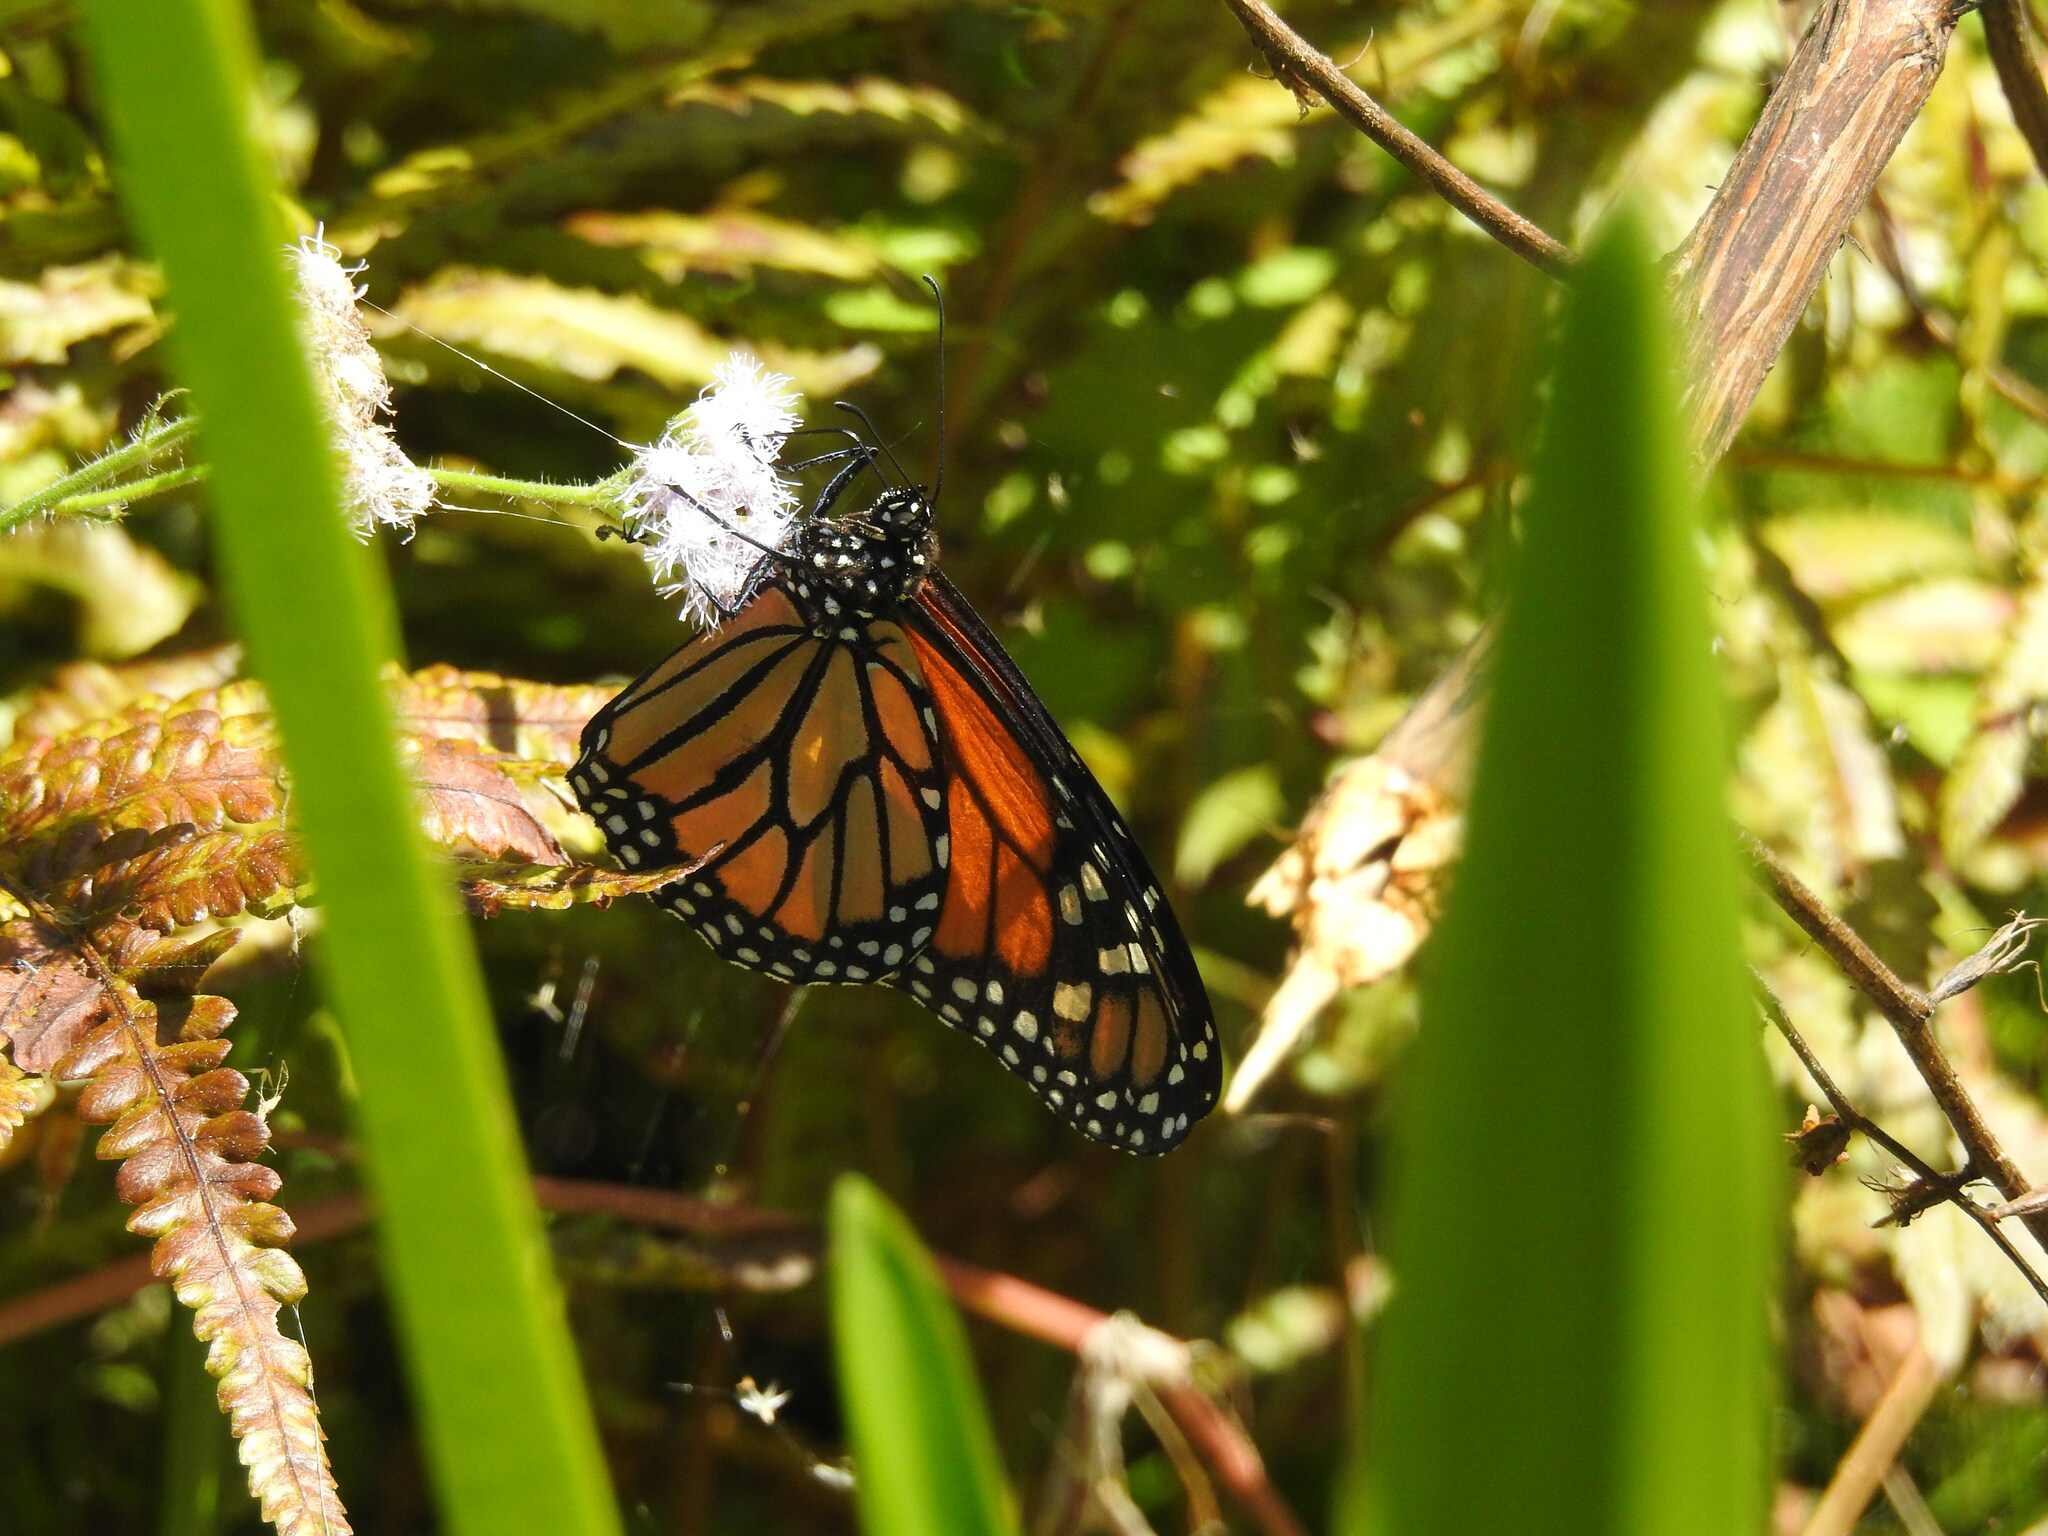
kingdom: Animalia
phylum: Arthropoda
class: Insecta
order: Lepidoptera
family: Nymphalidae
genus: Danaus
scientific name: Danaus plexippus
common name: Monarch
